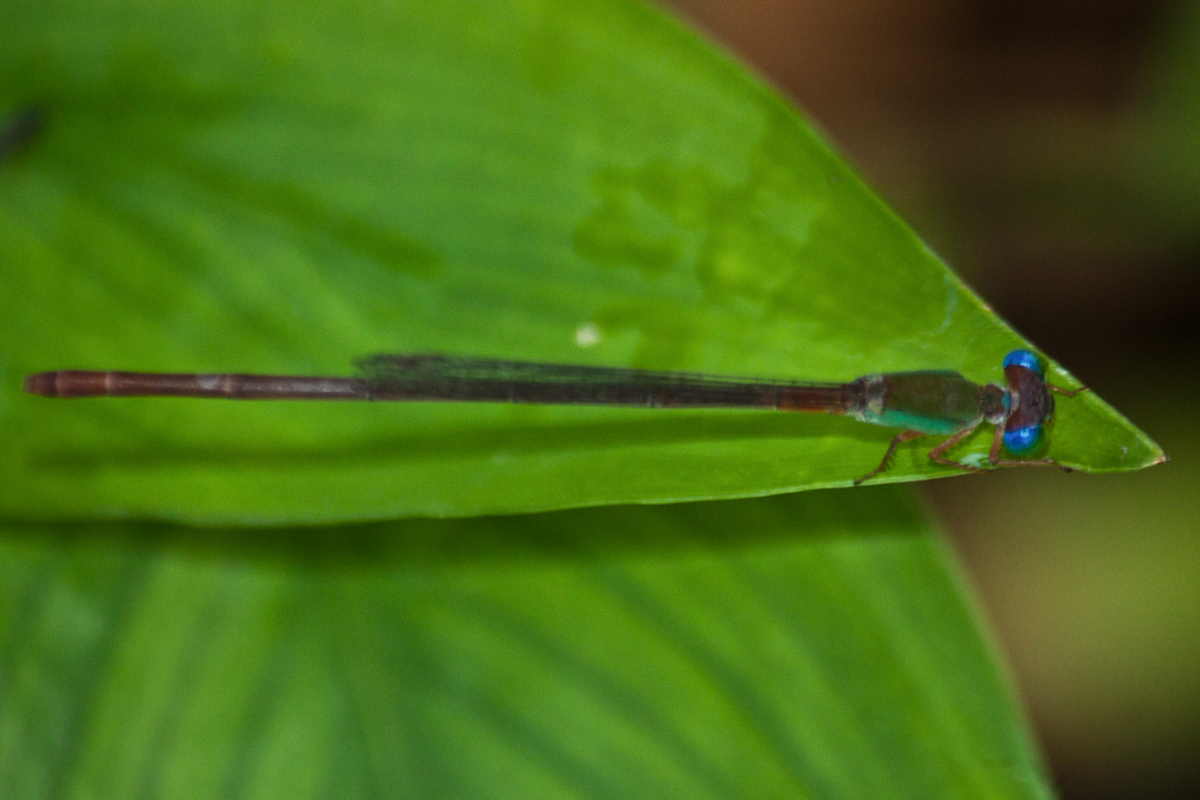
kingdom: Animalia
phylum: Arthropoda
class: Insecta
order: Odonata
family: Coenagrionidae
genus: Ceriagrion
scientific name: Ceriagrion cerinorubellum
